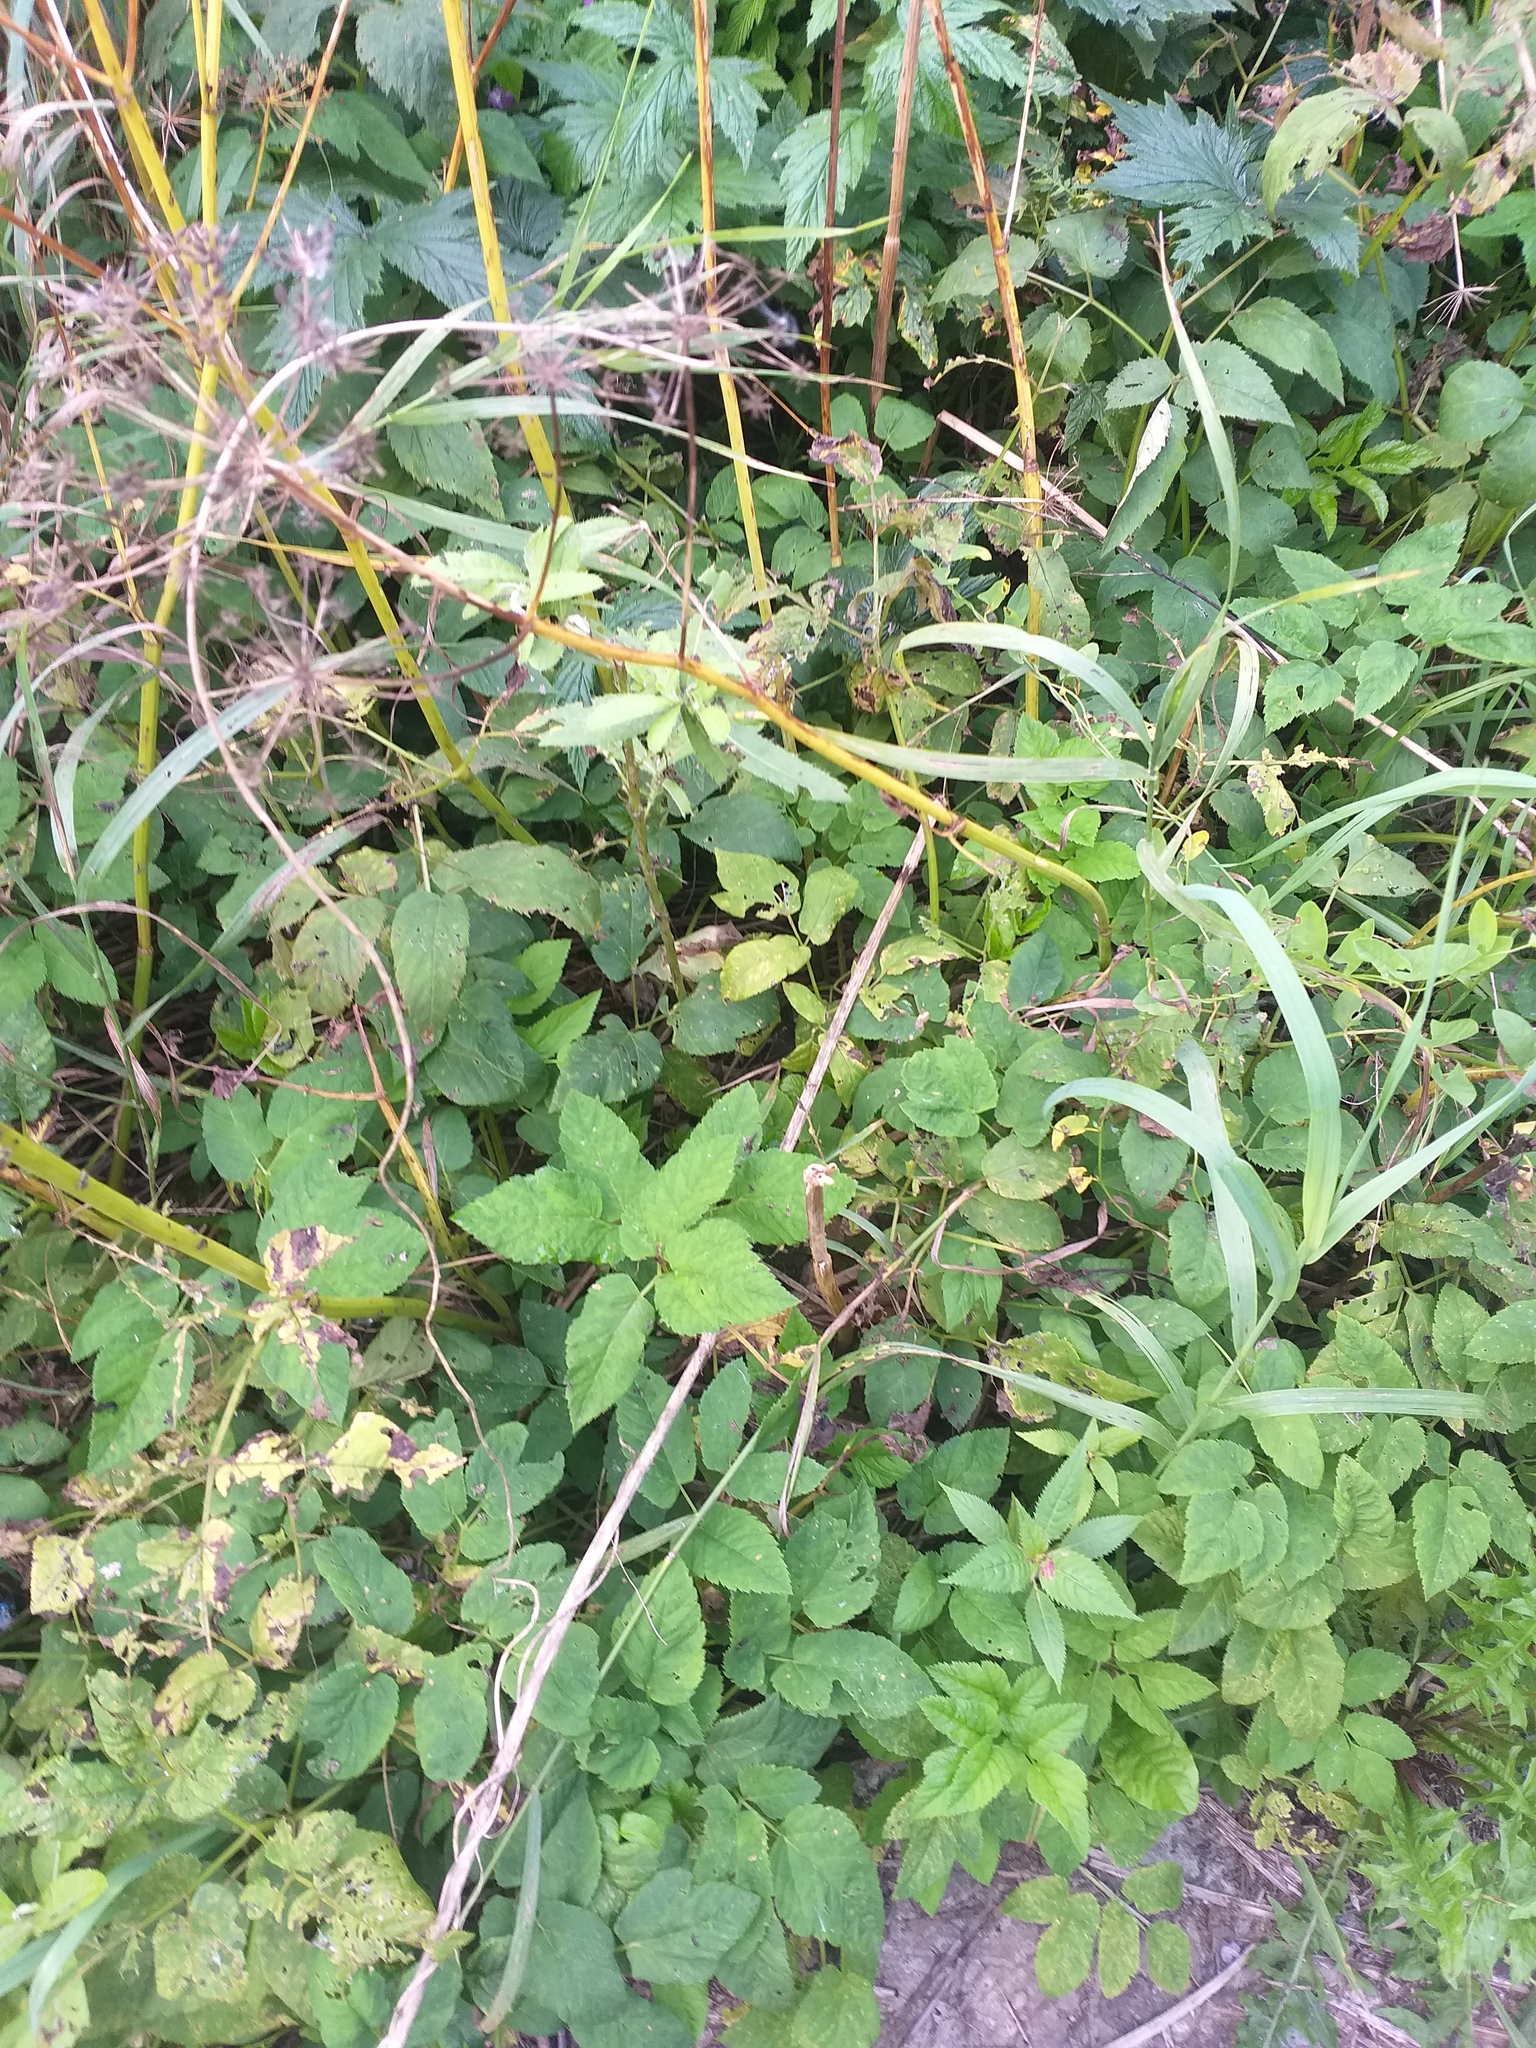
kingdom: Plantae
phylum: Tracheophyta
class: Magnoliopsida
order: Apiales
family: Apiaceae
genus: Aegopodium
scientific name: Aegopodium podagraria
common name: Ground-elder
